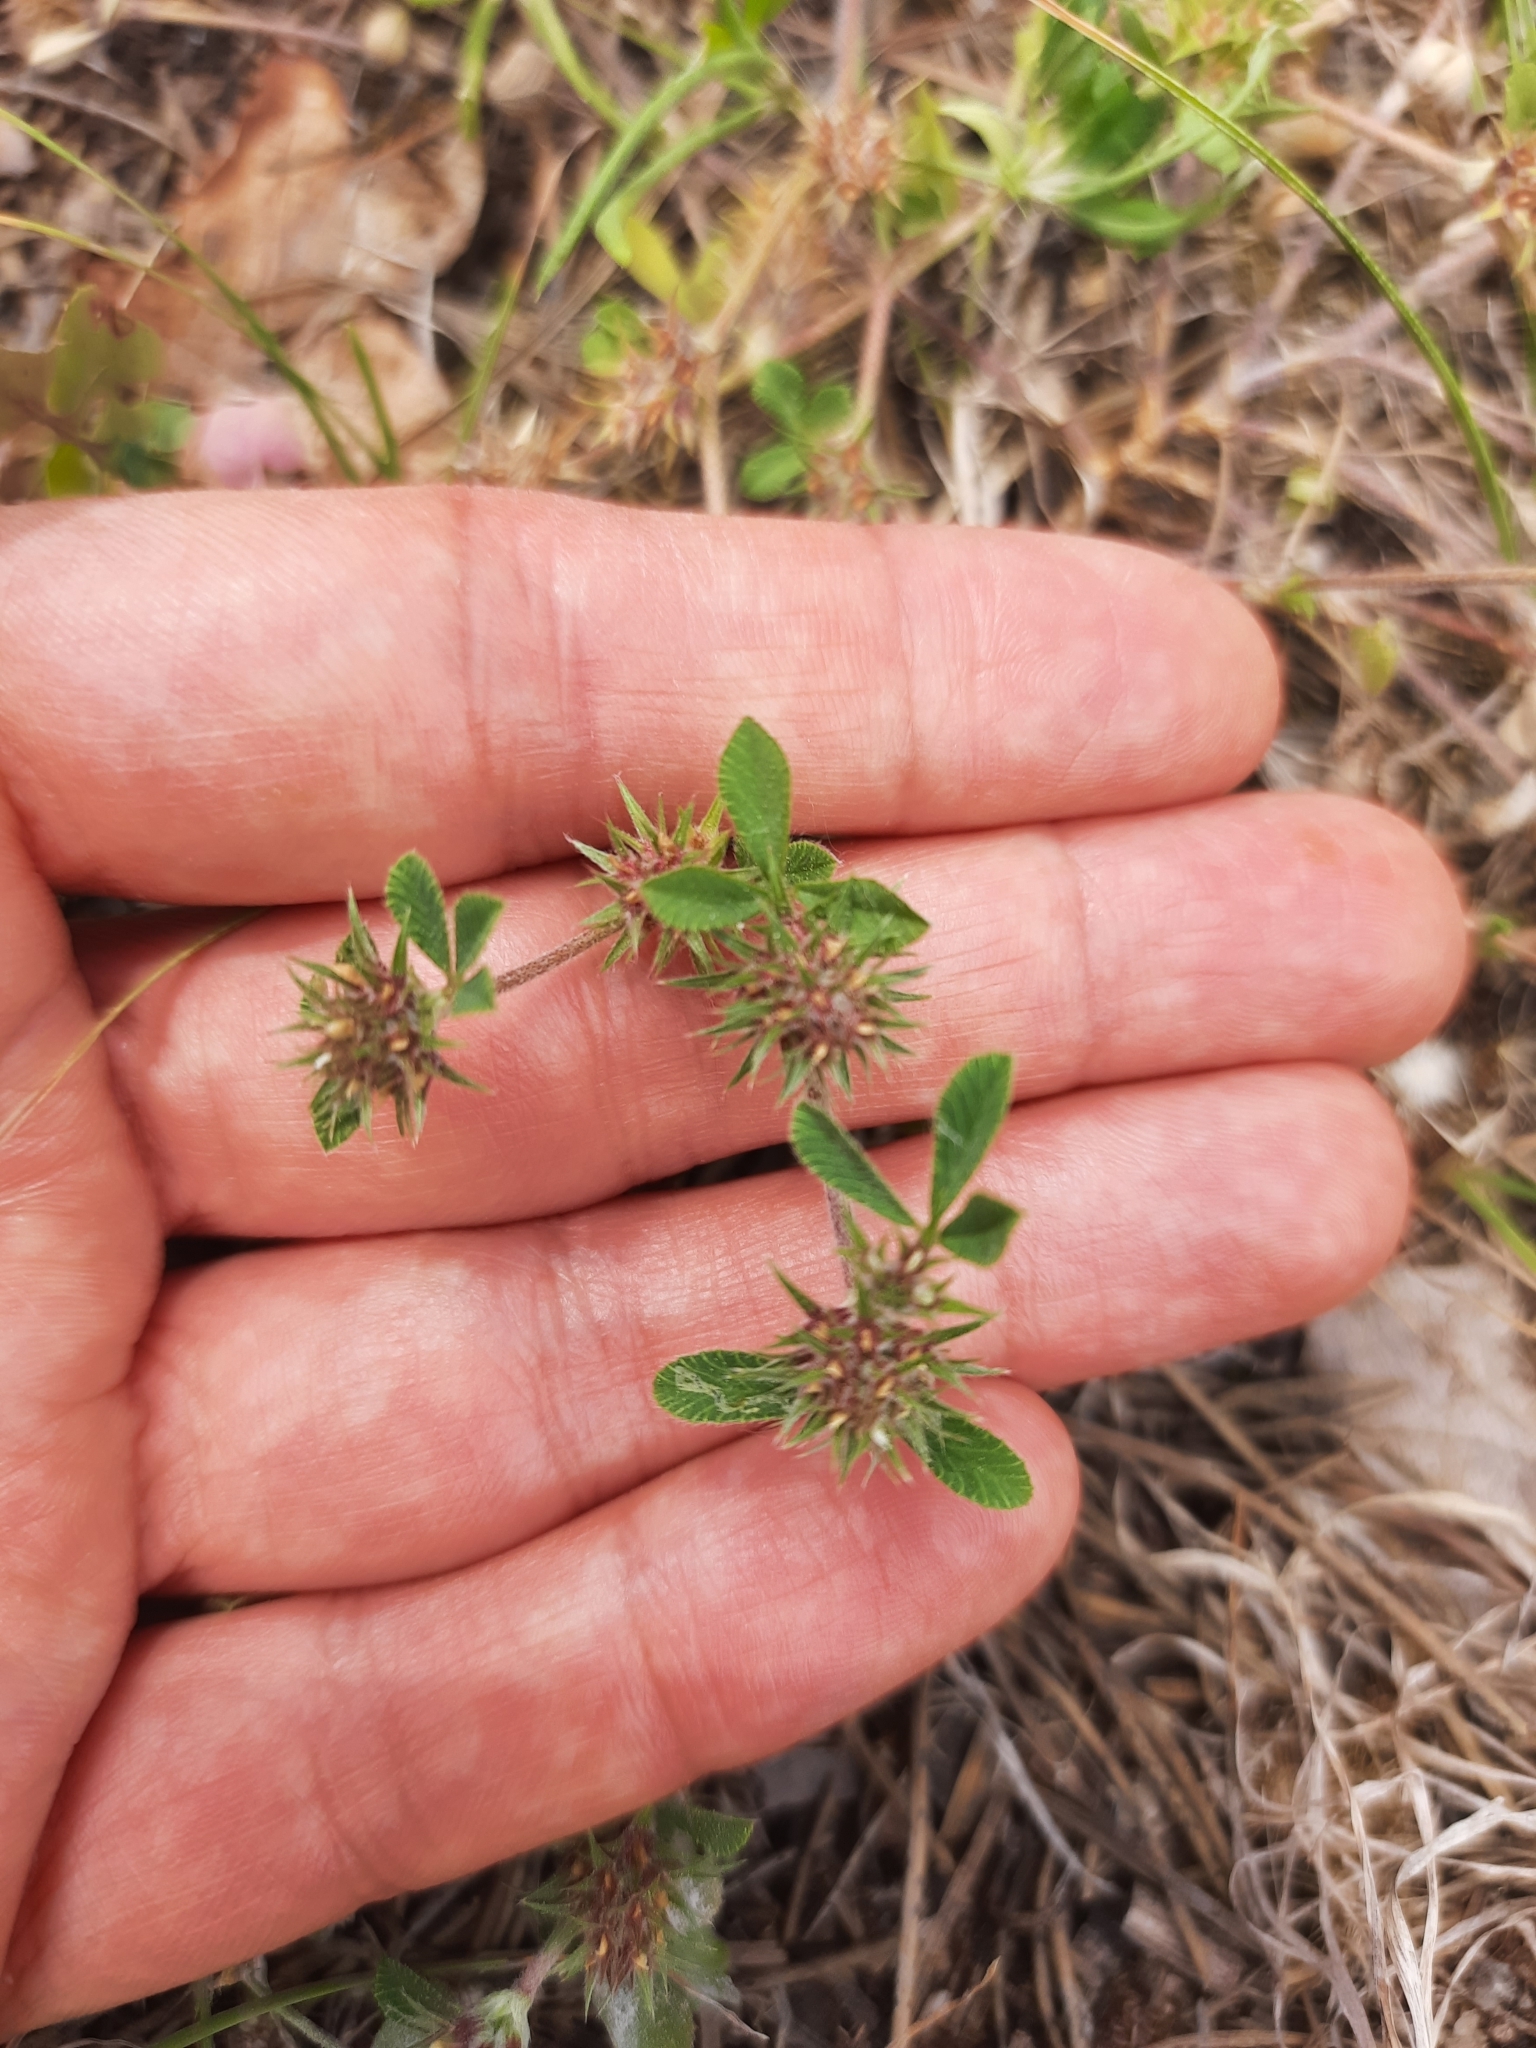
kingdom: Plantae
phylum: Tracheophyta
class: Magnoliopsida
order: Fabales
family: Fabaceae
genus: Trifolium
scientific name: Trifolium scabrum
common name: Rough clover
